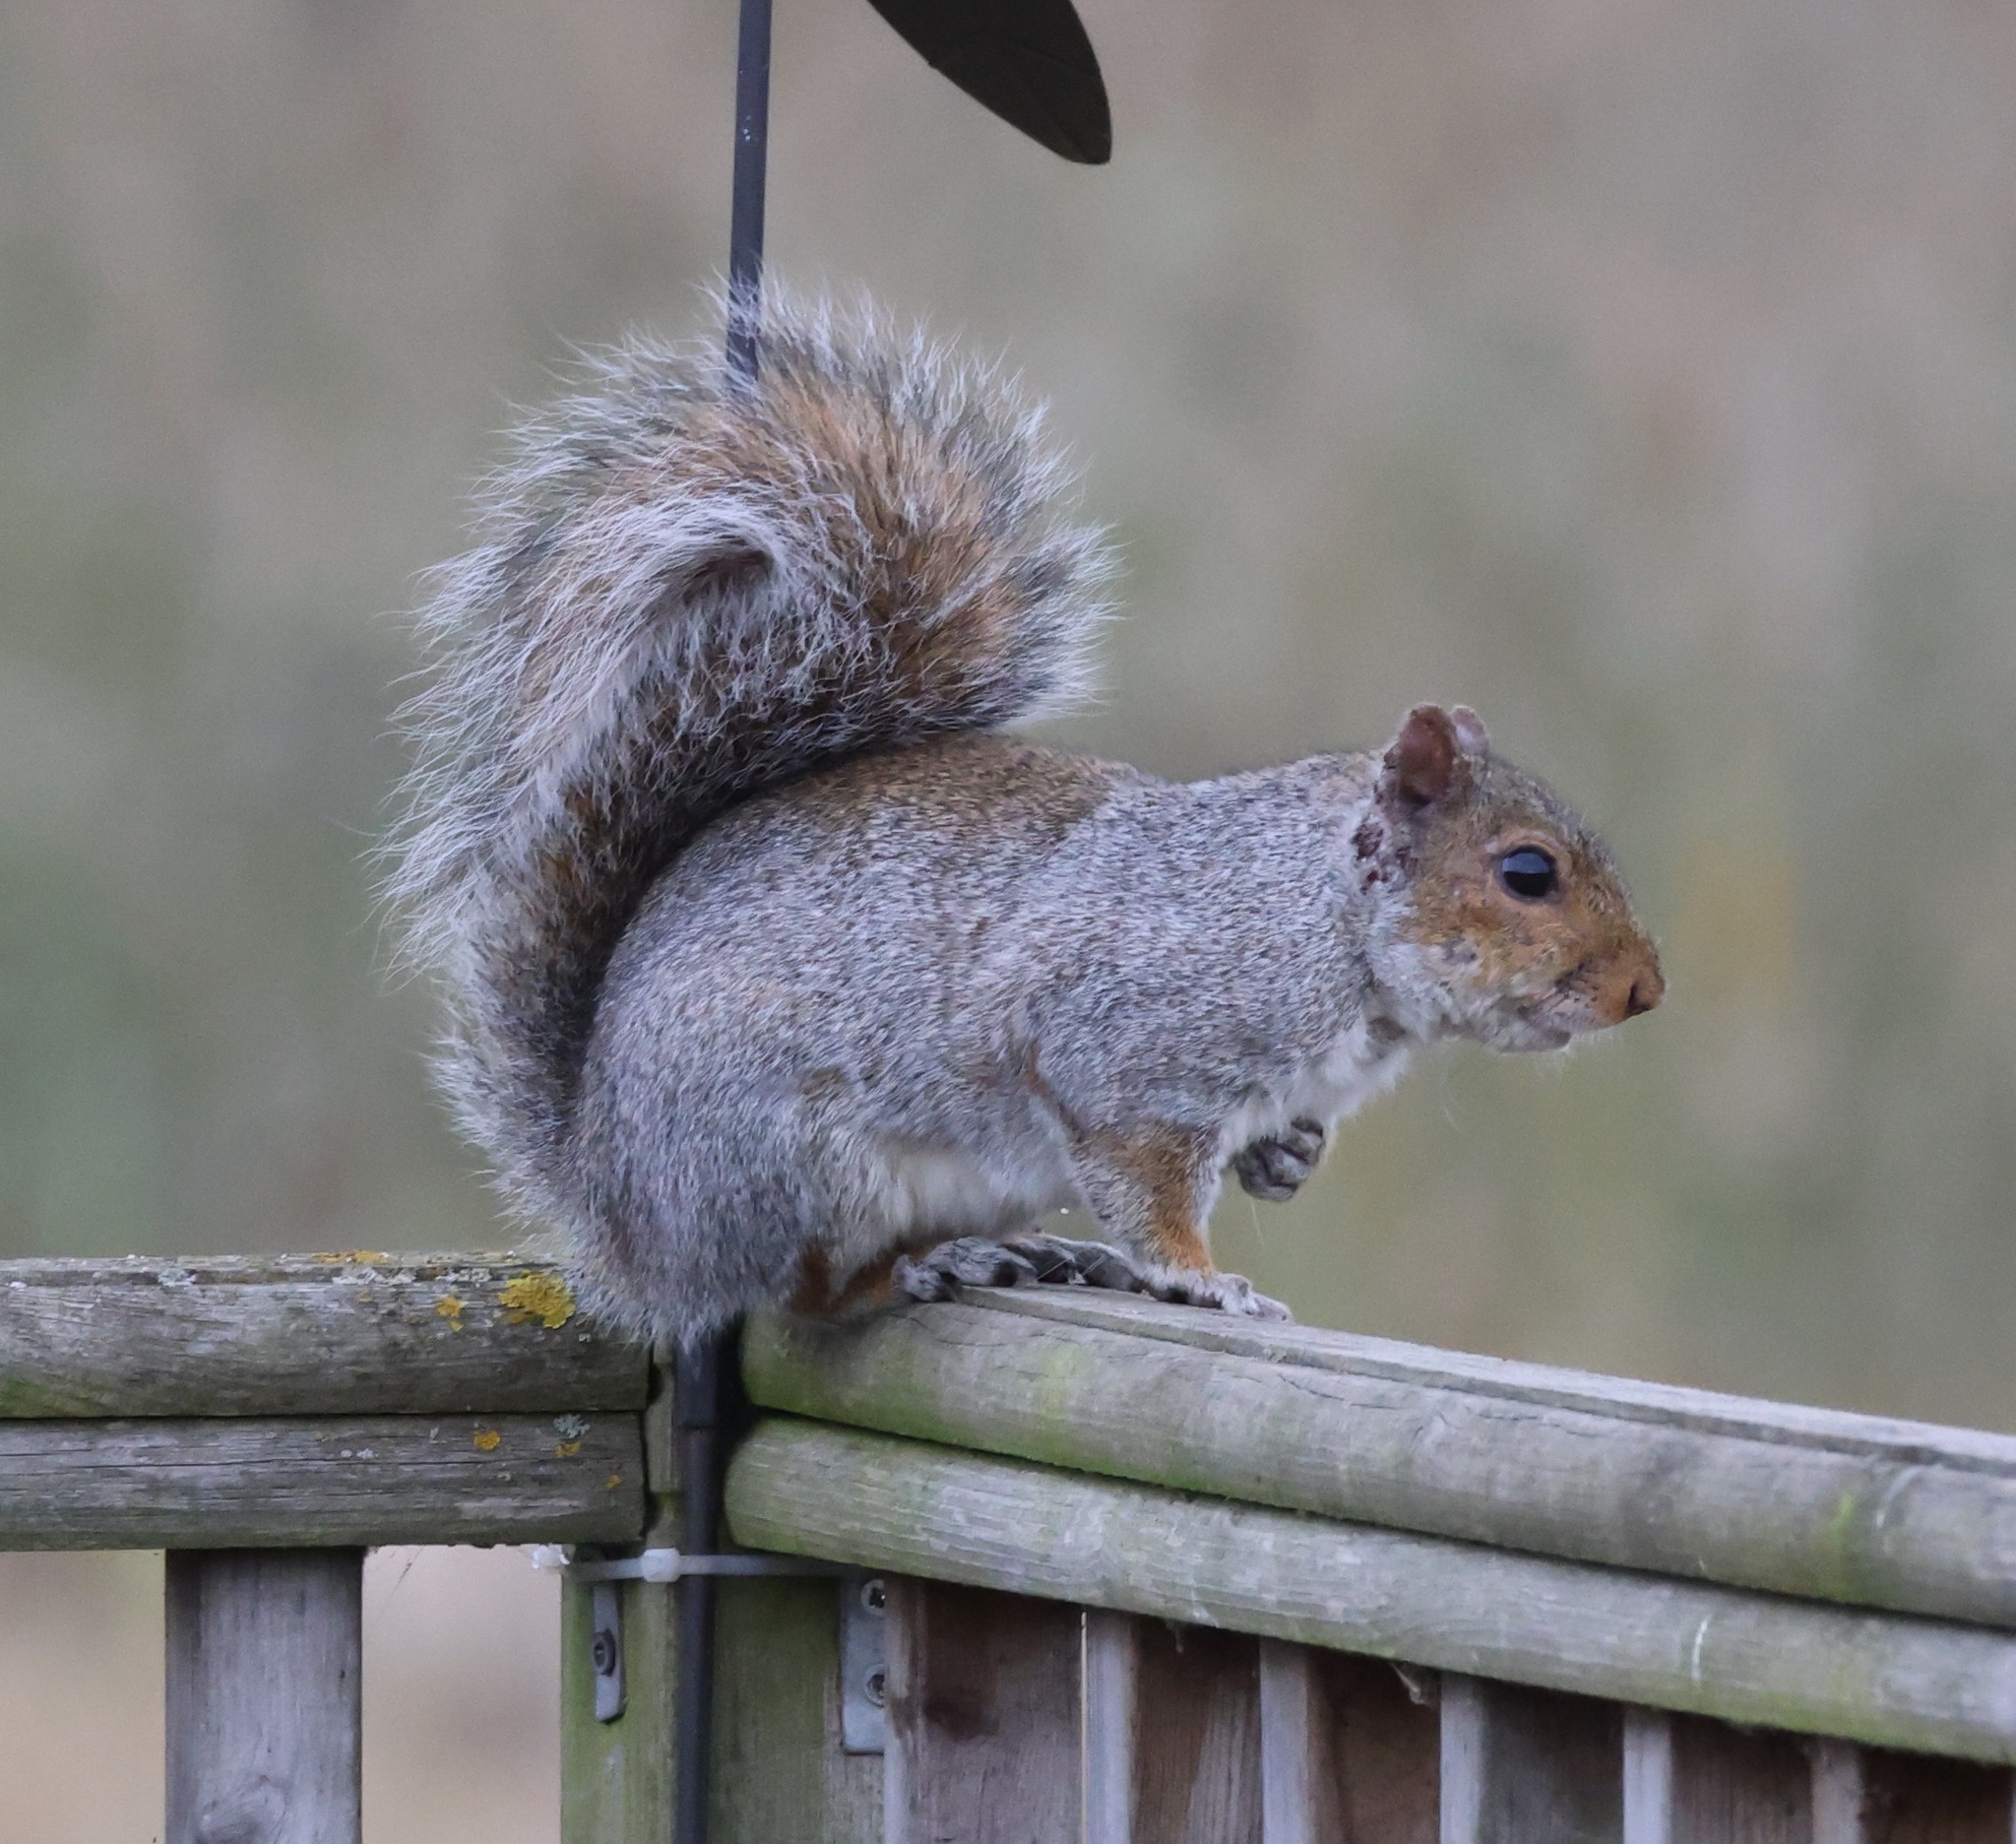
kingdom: Animalia
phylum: Chordata
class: Mammalia
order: Rodentia
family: Sciuridae
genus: Sciurus
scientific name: Sciurus carolinensis
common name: Eastern gray squirrel
